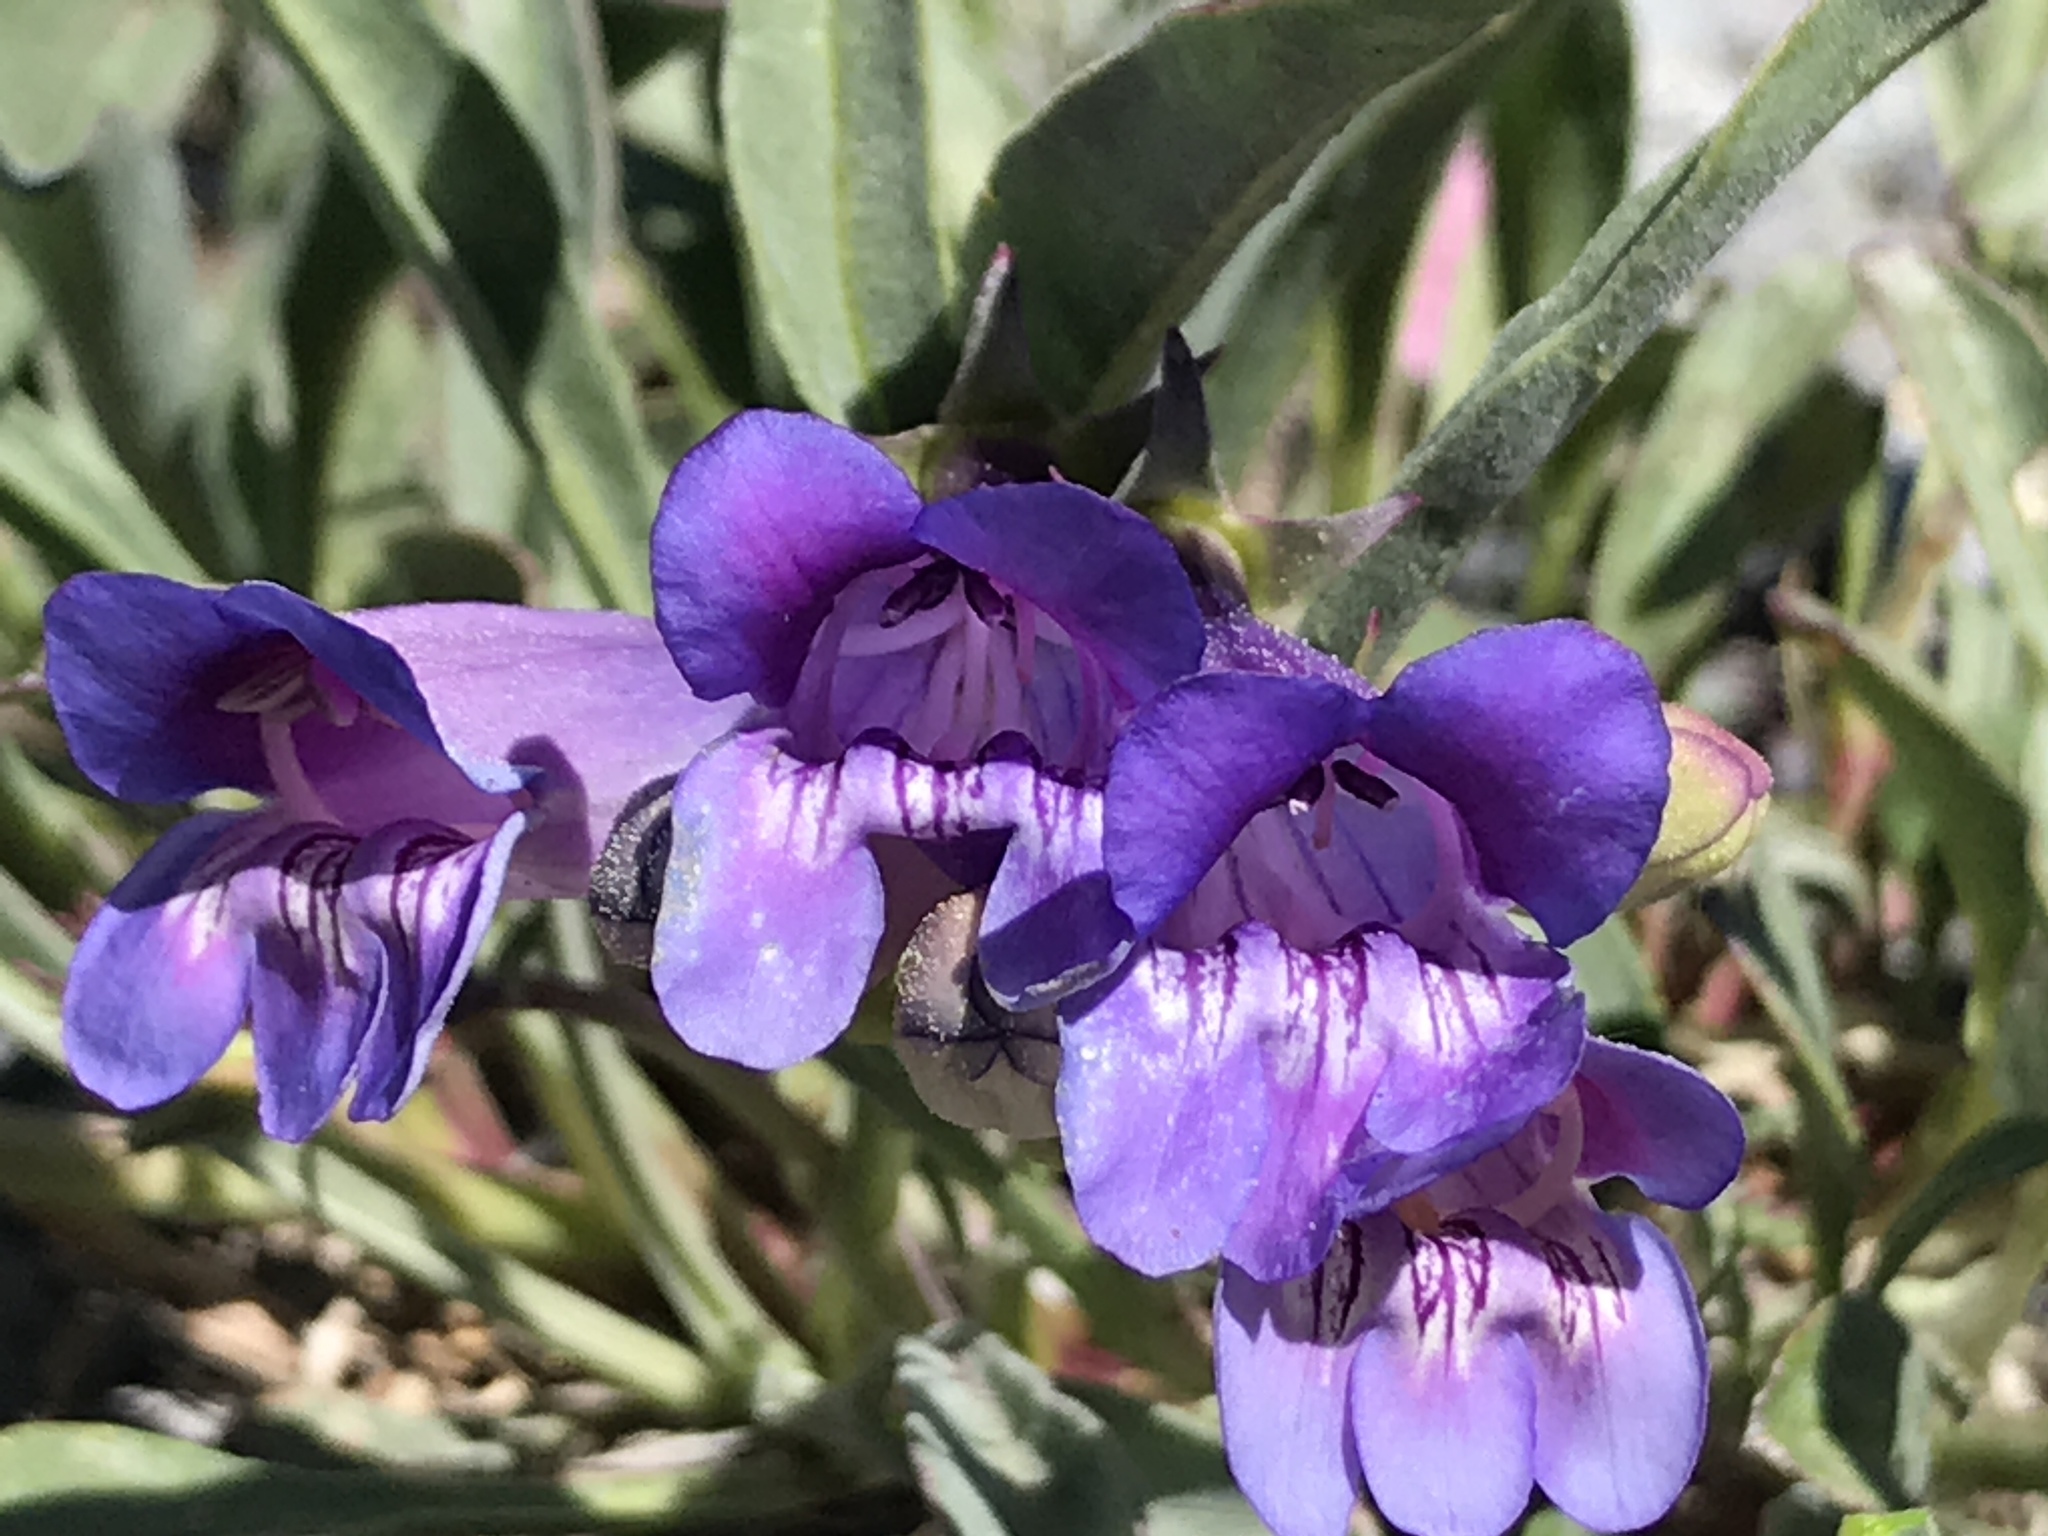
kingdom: Plantae
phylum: Tracheophyta
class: Magnoliopsida
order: Lamiales
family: Plantaginaceae
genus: Penstemon
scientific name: Penstemon speciosus
